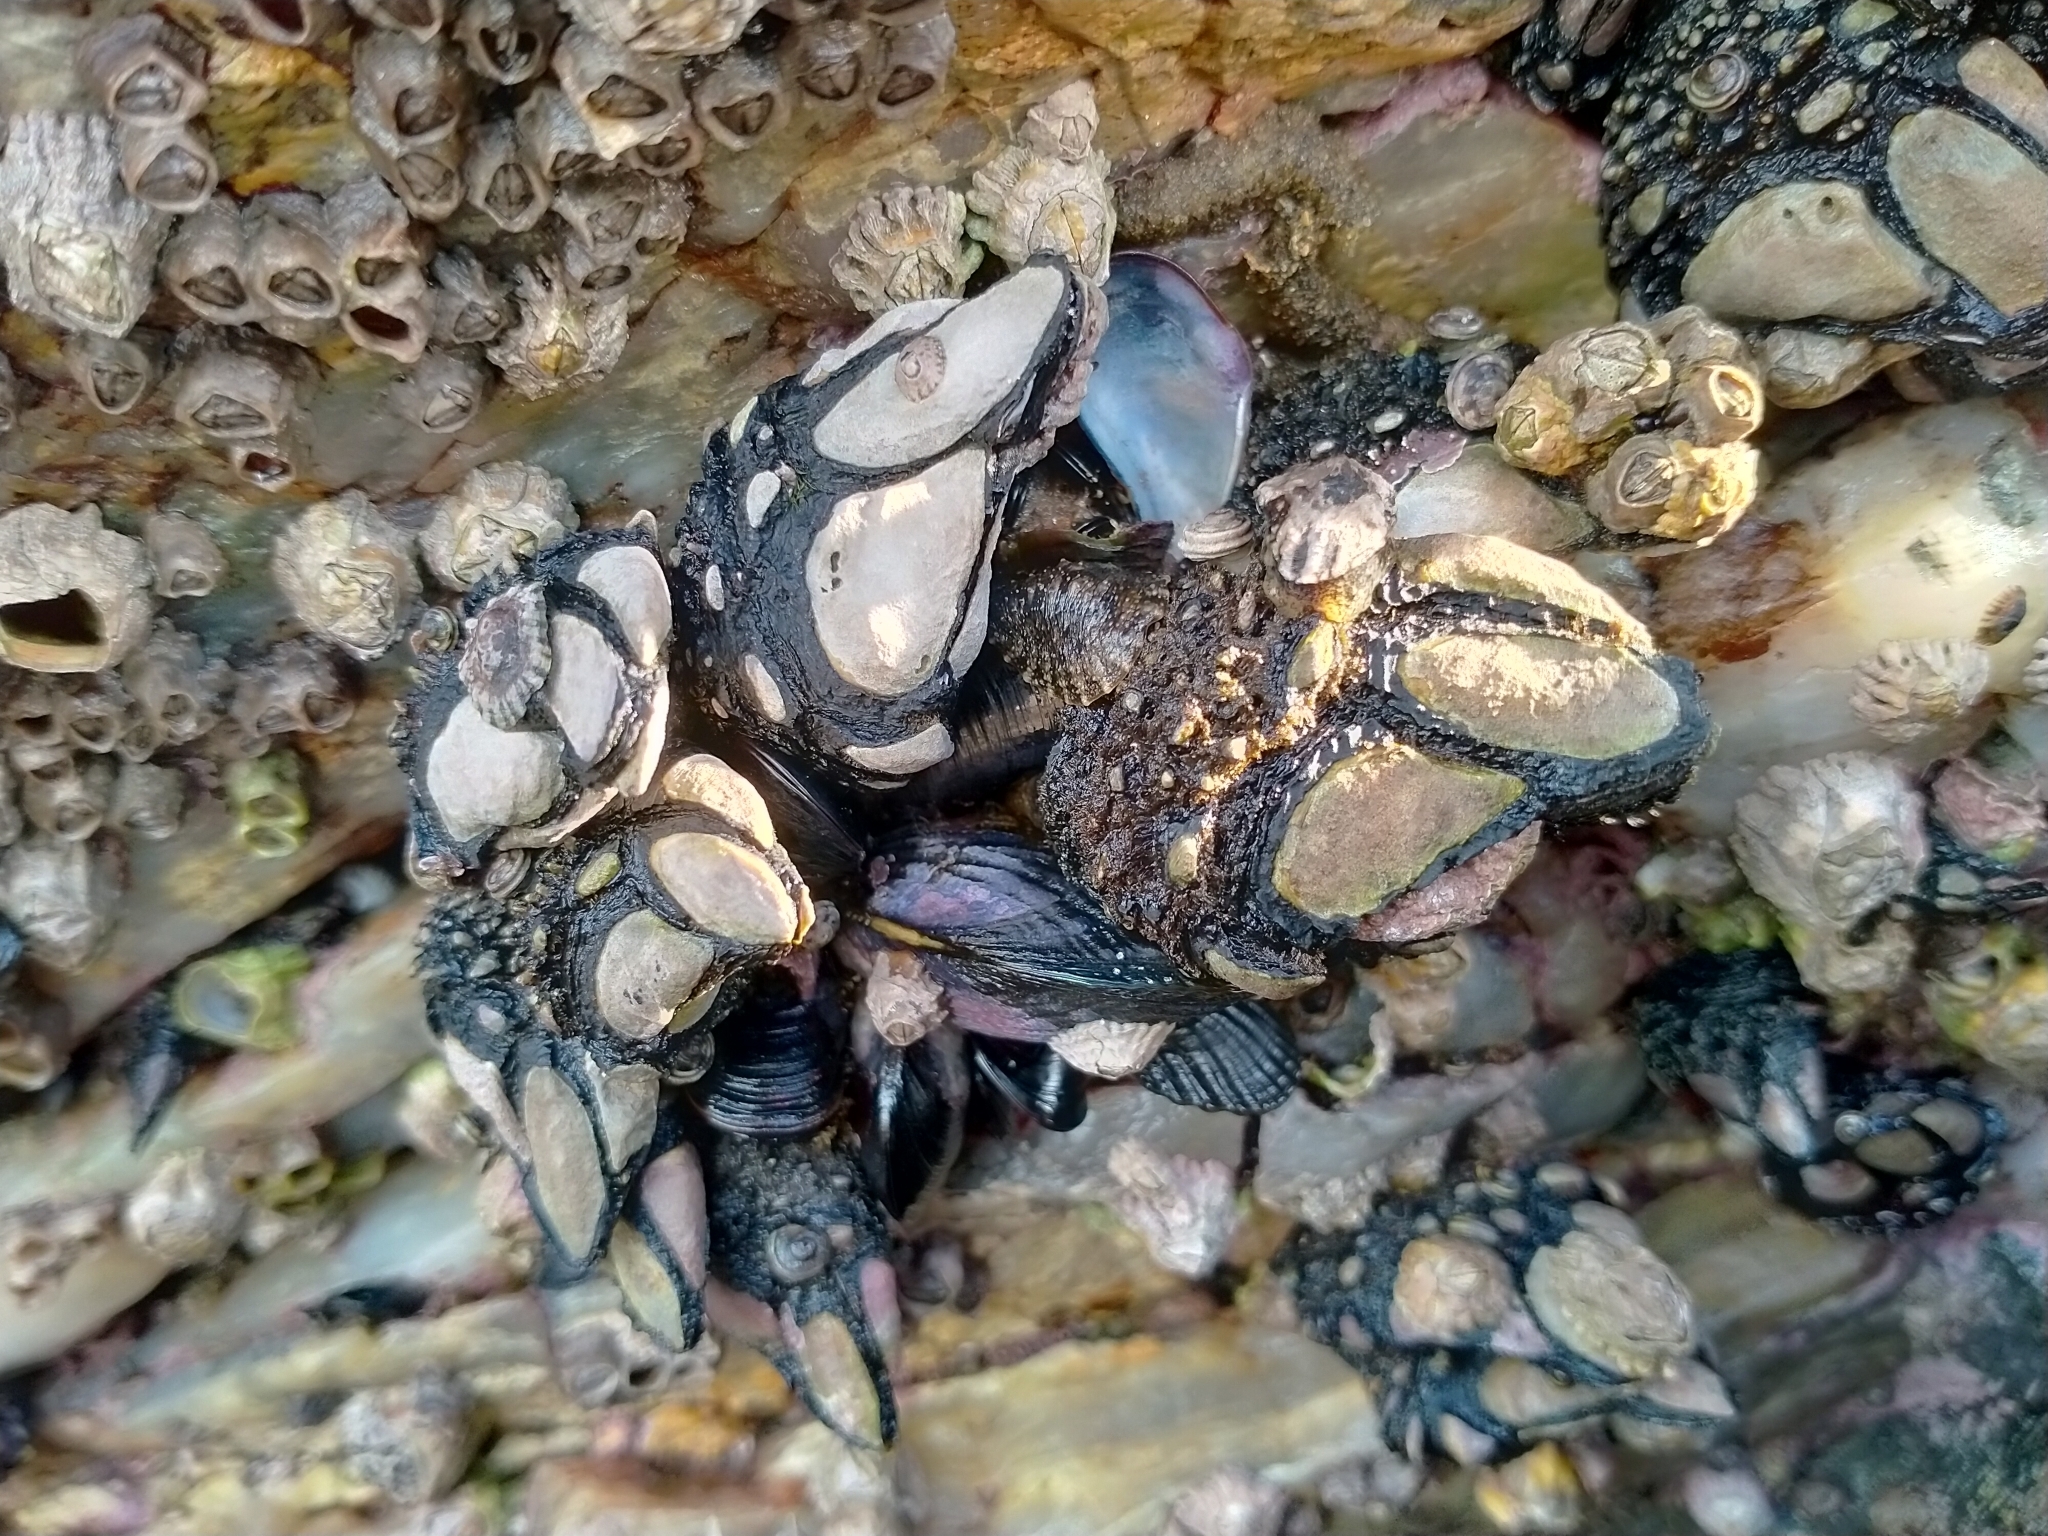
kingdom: Animalia
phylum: Arthropoda
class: Maxillopoda
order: Pedunculata
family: Calanticidae
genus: Calantica
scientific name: Calantica spinosa
